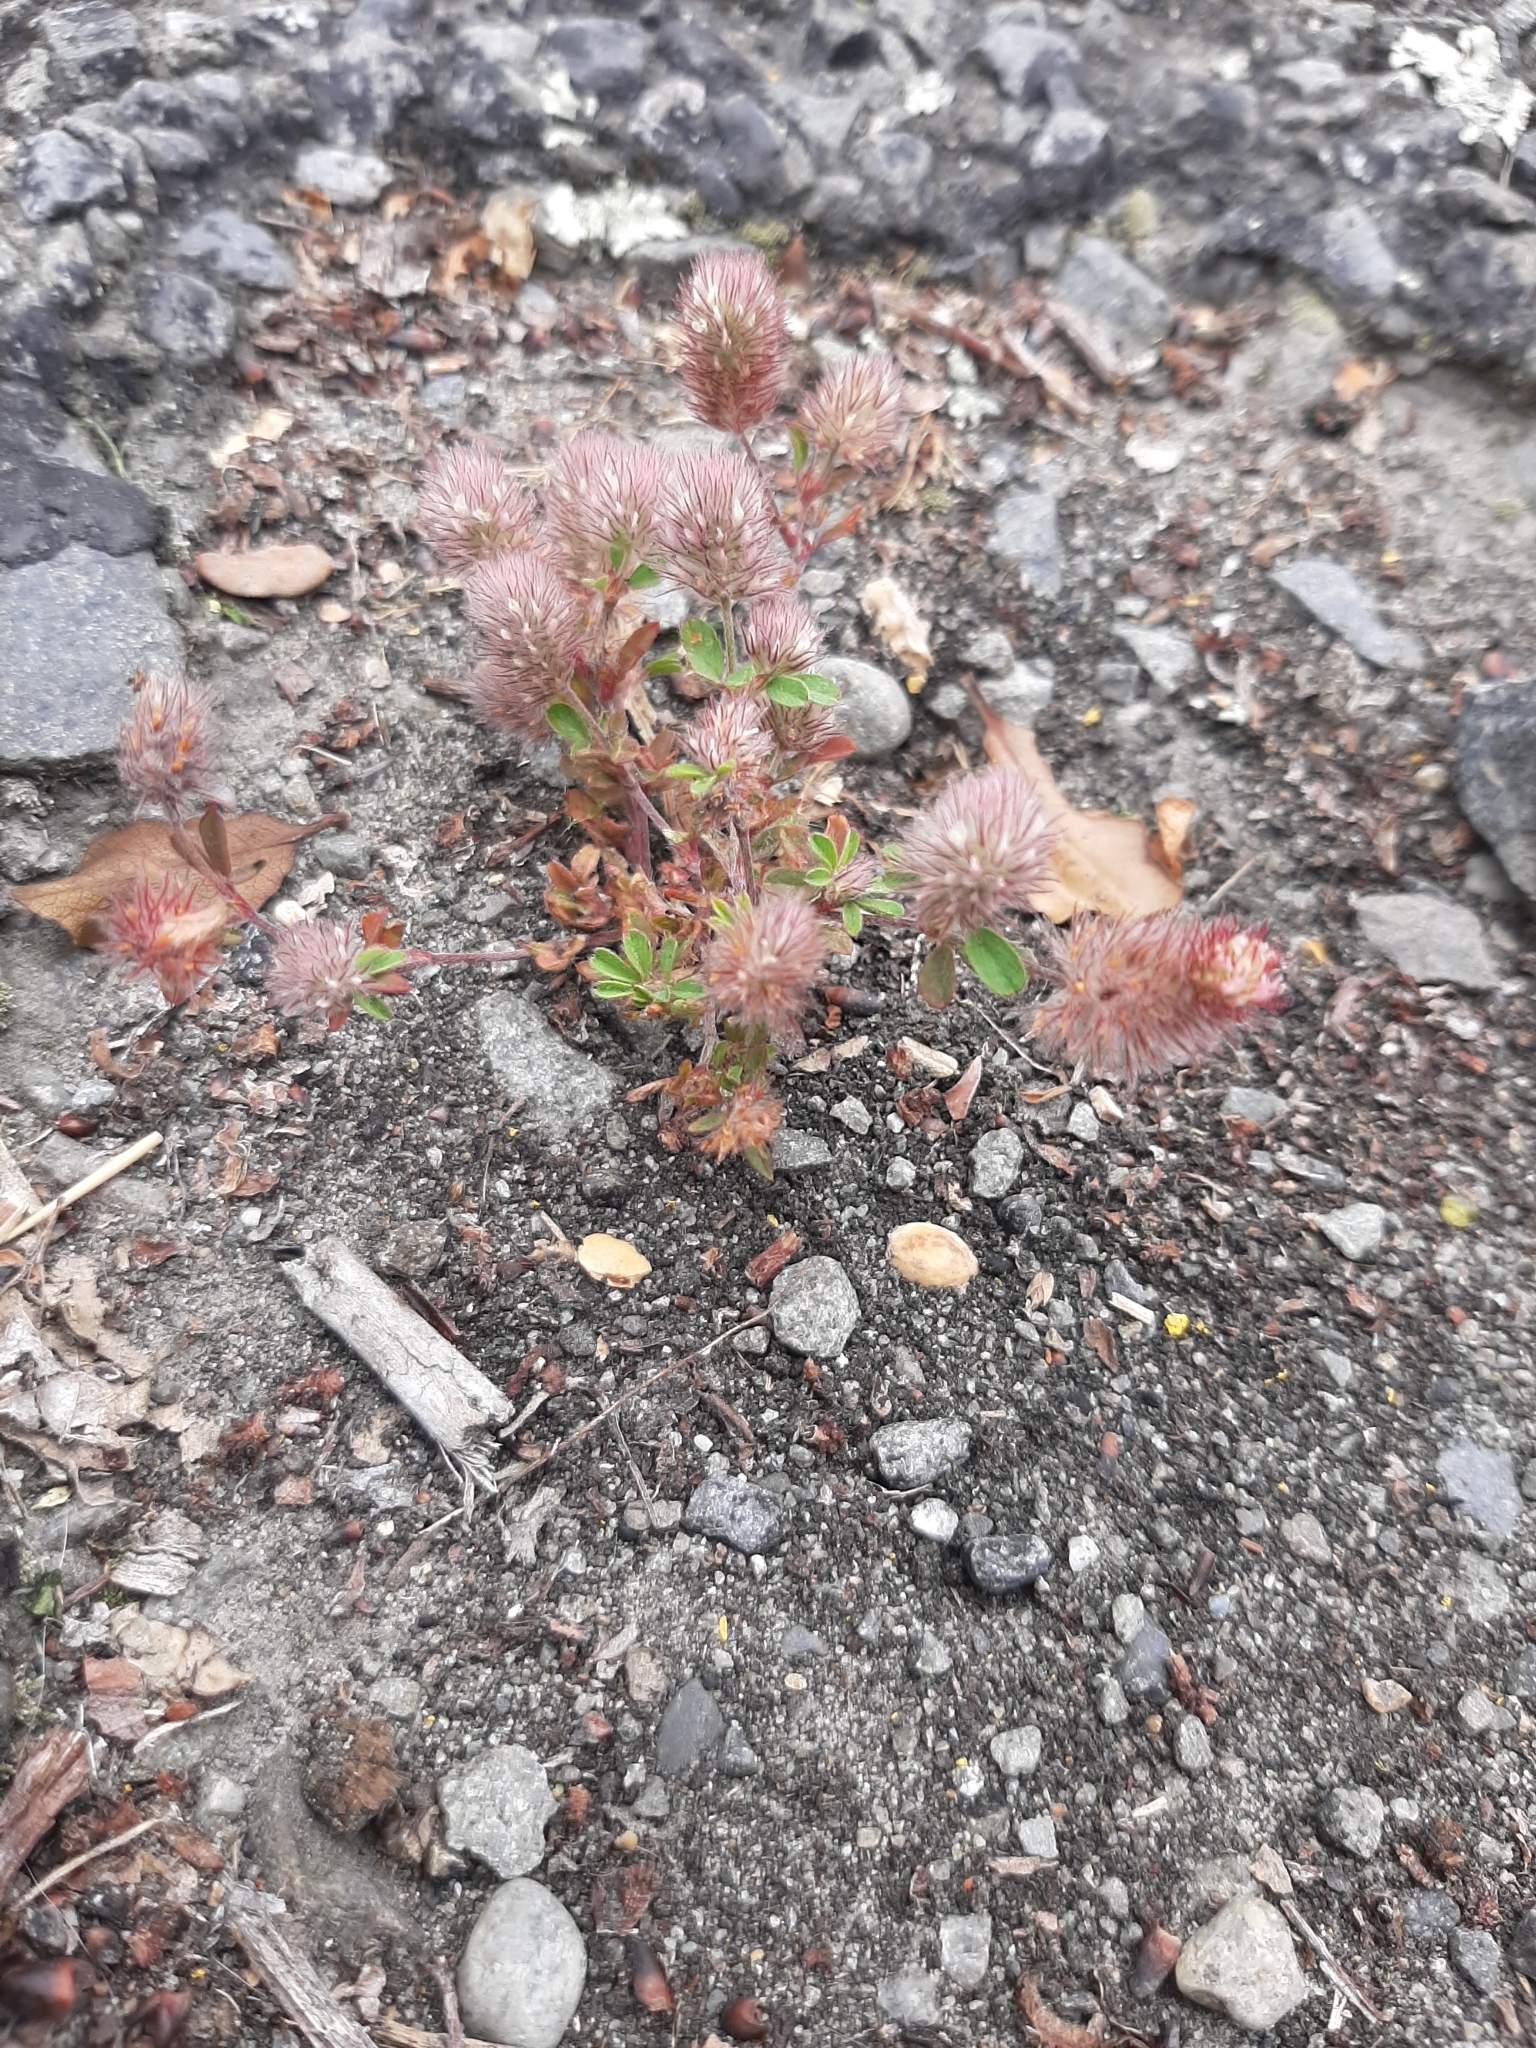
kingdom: Plantae
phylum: Tracheophyta
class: Magnoliopsida
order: Fabales
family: Fabaceae
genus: Trifolium
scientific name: Trifolium arvense
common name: Hare's-foot clover
